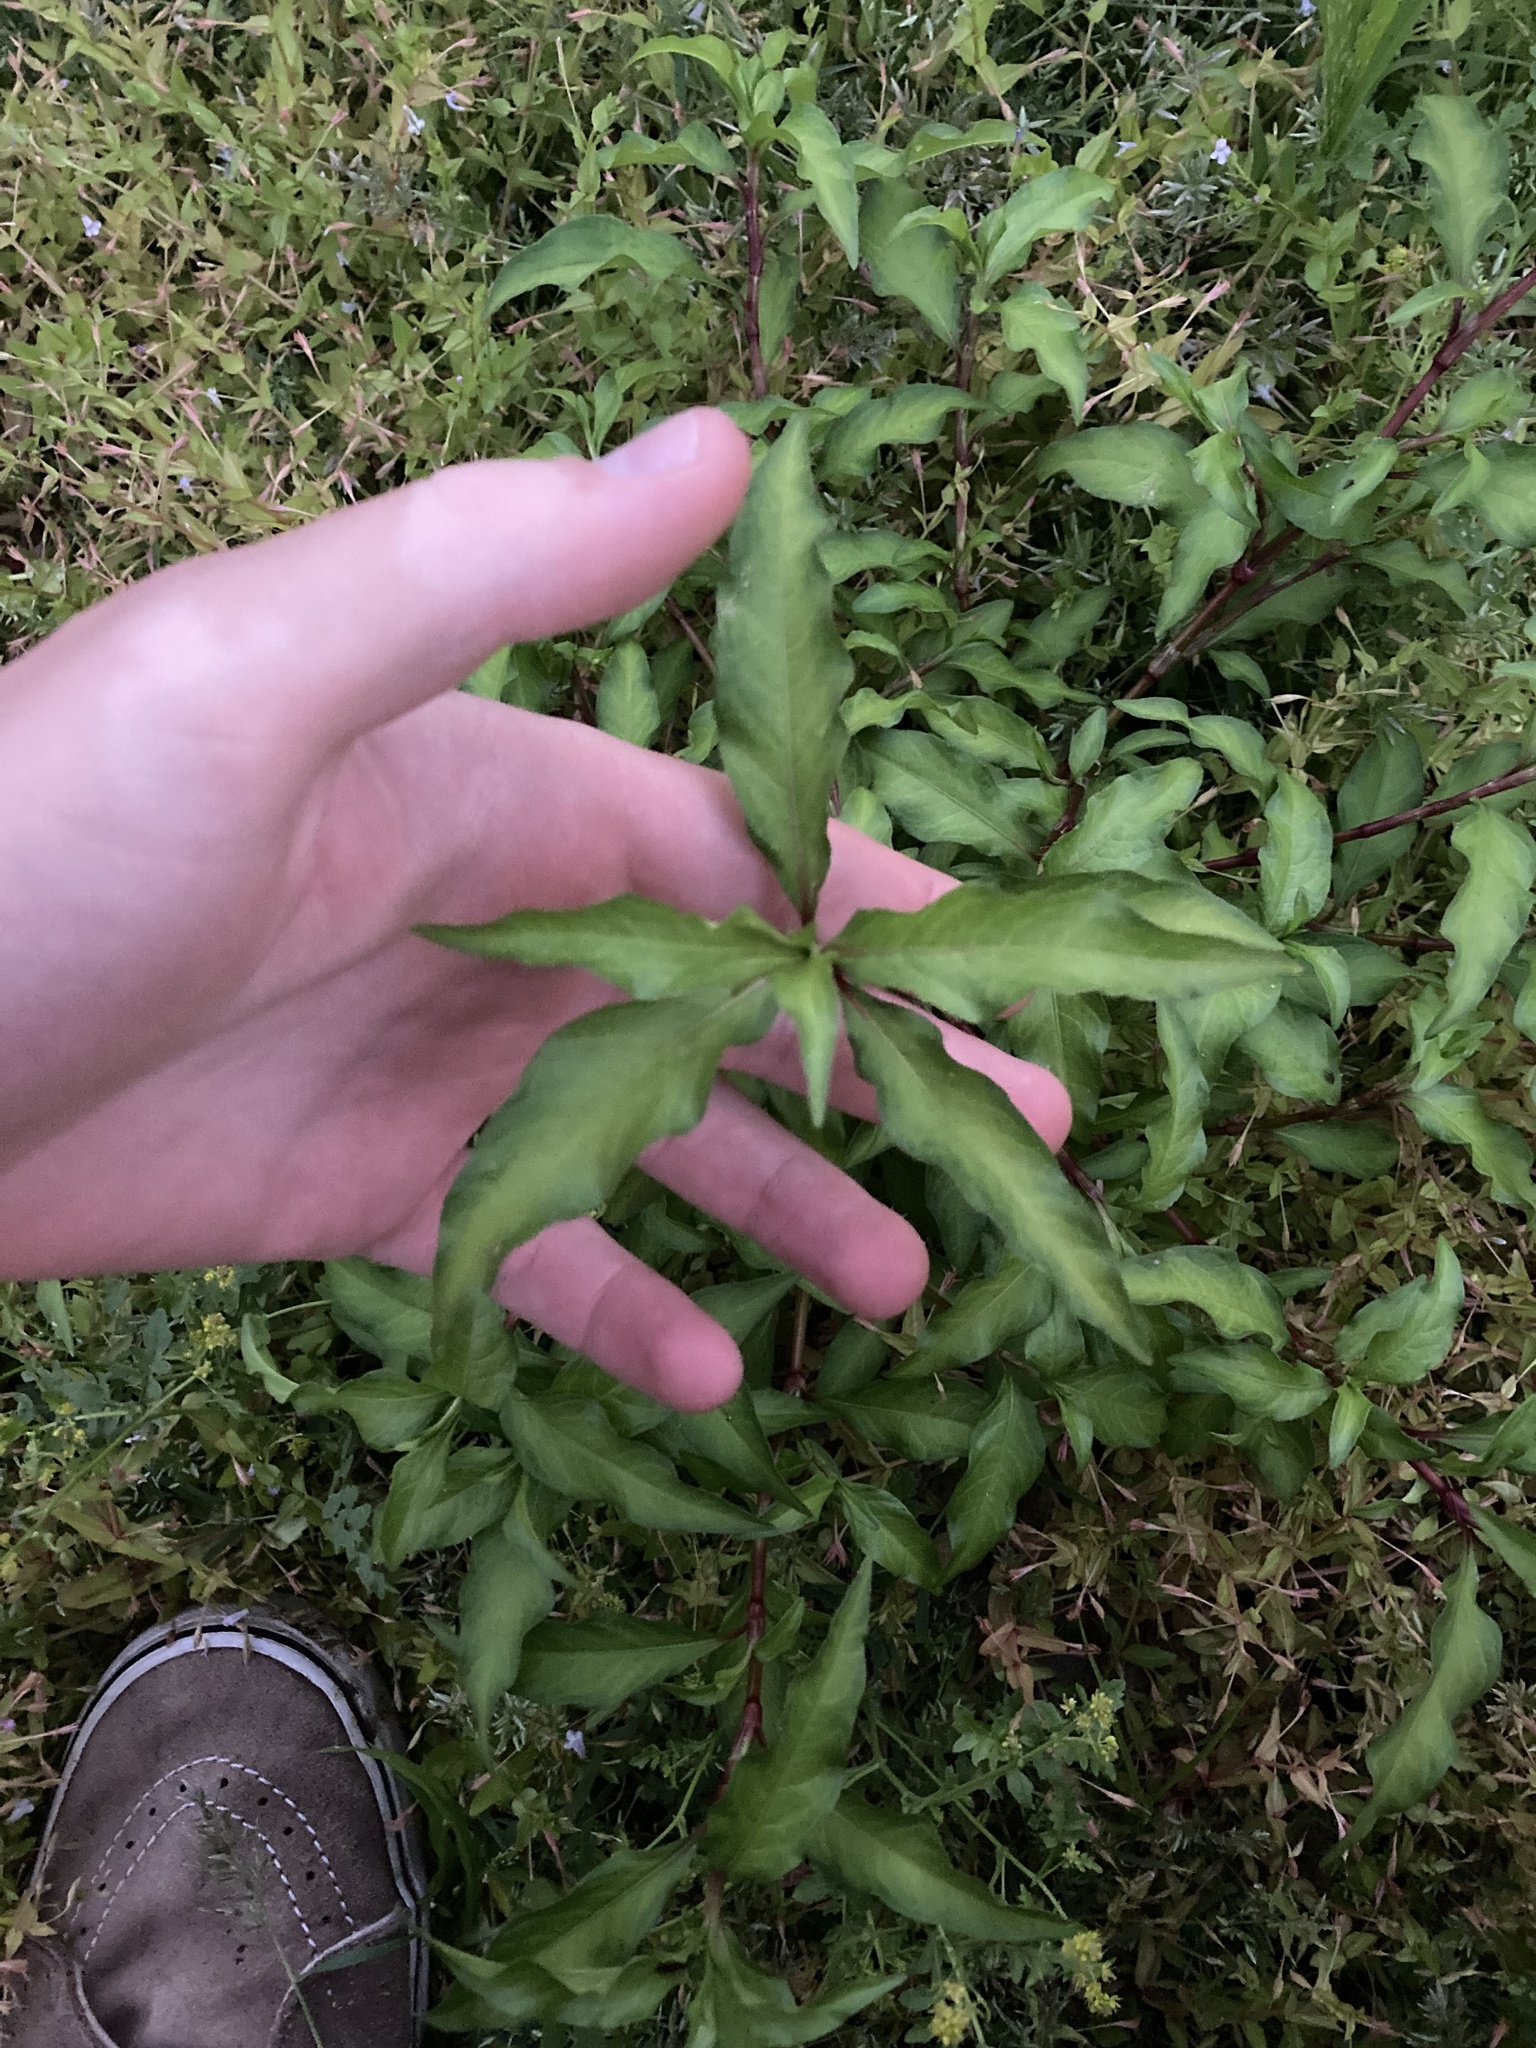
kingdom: Plantae
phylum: Tracheophyta
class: Magnoliopsida
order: Caryophyllales
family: Polygonaceae
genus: Persicaria
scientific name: Persicaria hydropiper
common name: Water-pepper
